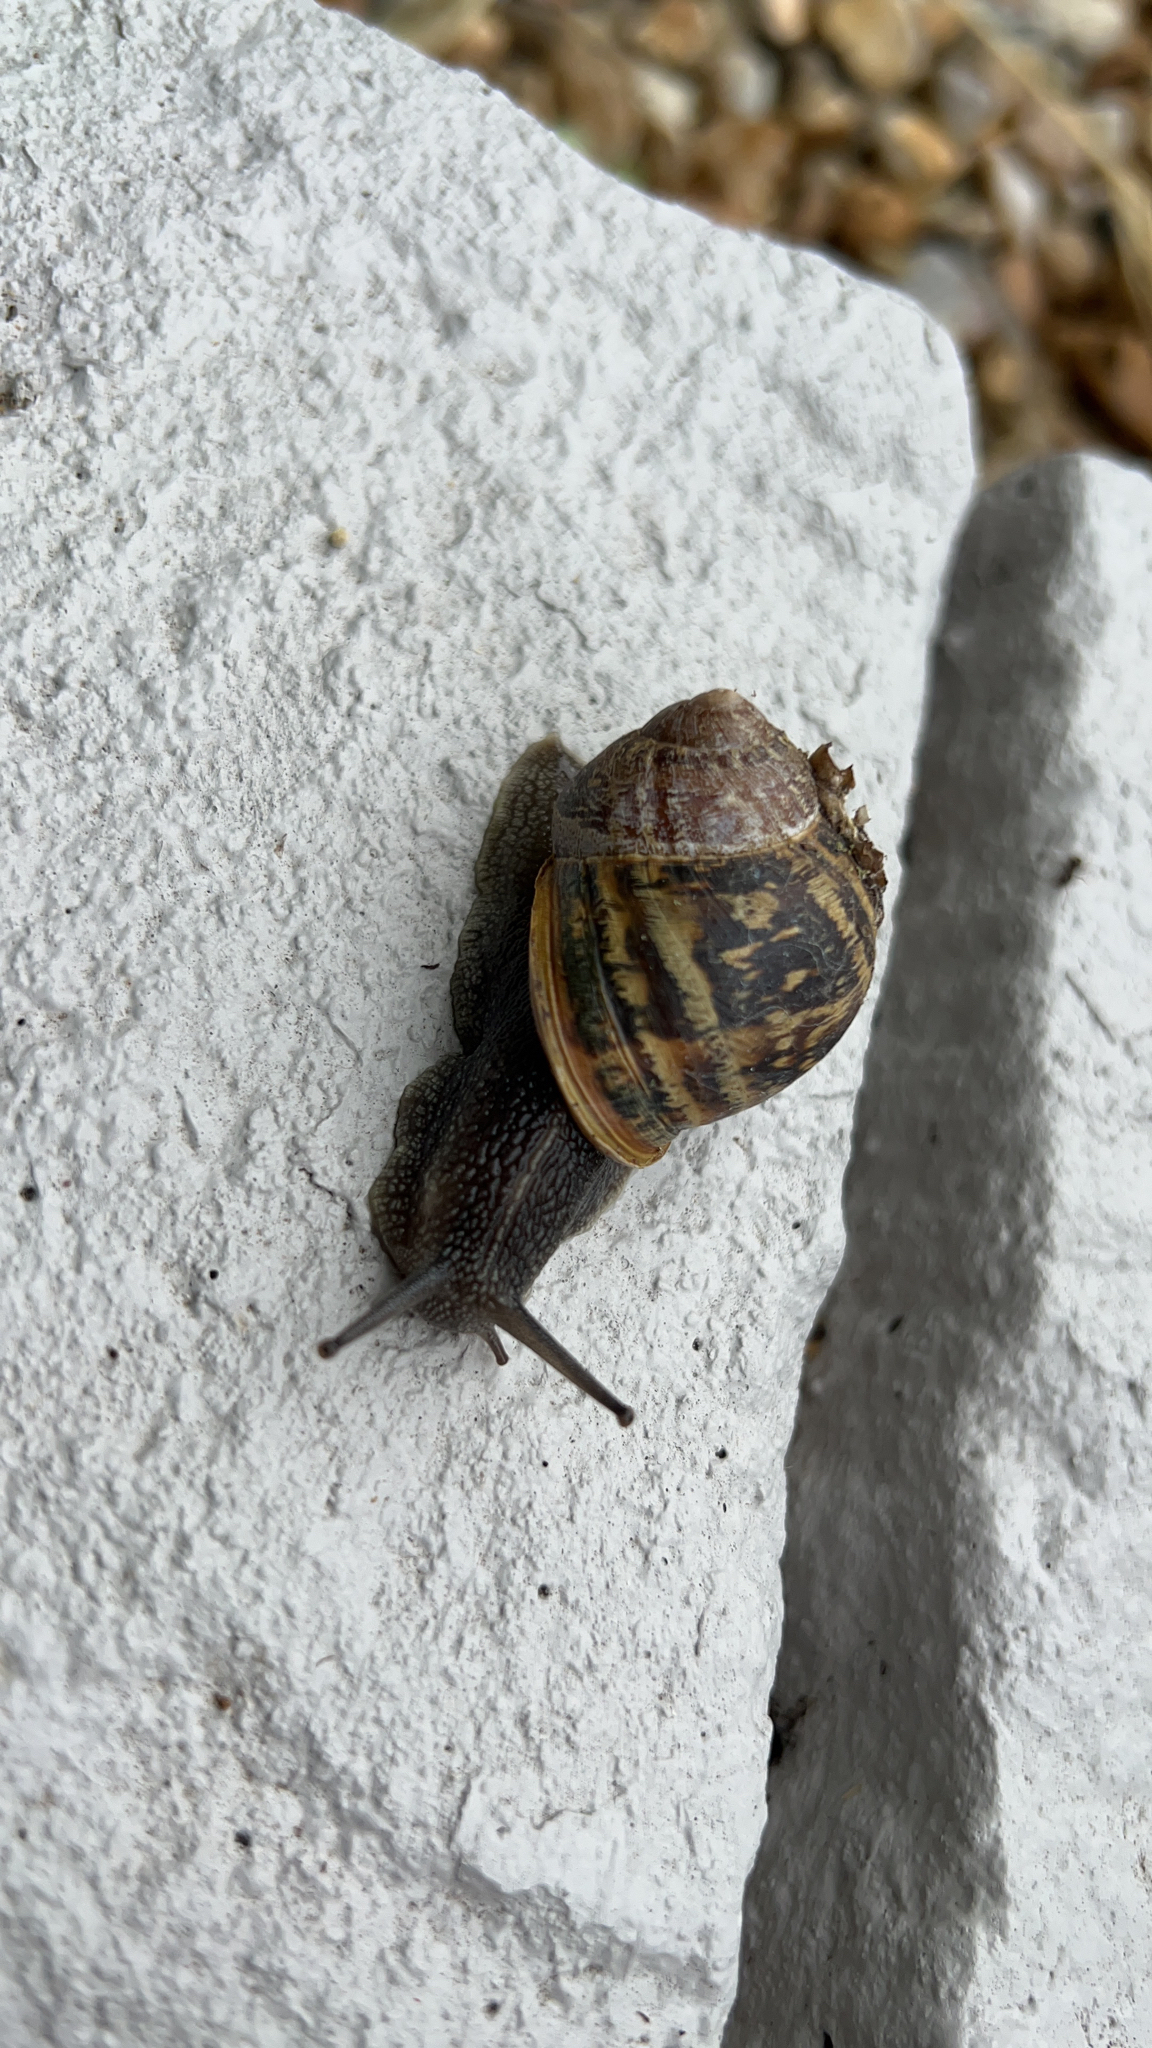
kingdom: Animalia
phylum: Mollusca
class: Gastropoda
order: Stylommatophora
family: Helicidae
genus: Cornu
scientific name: Cornu aspersum
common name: Brown garden snail
